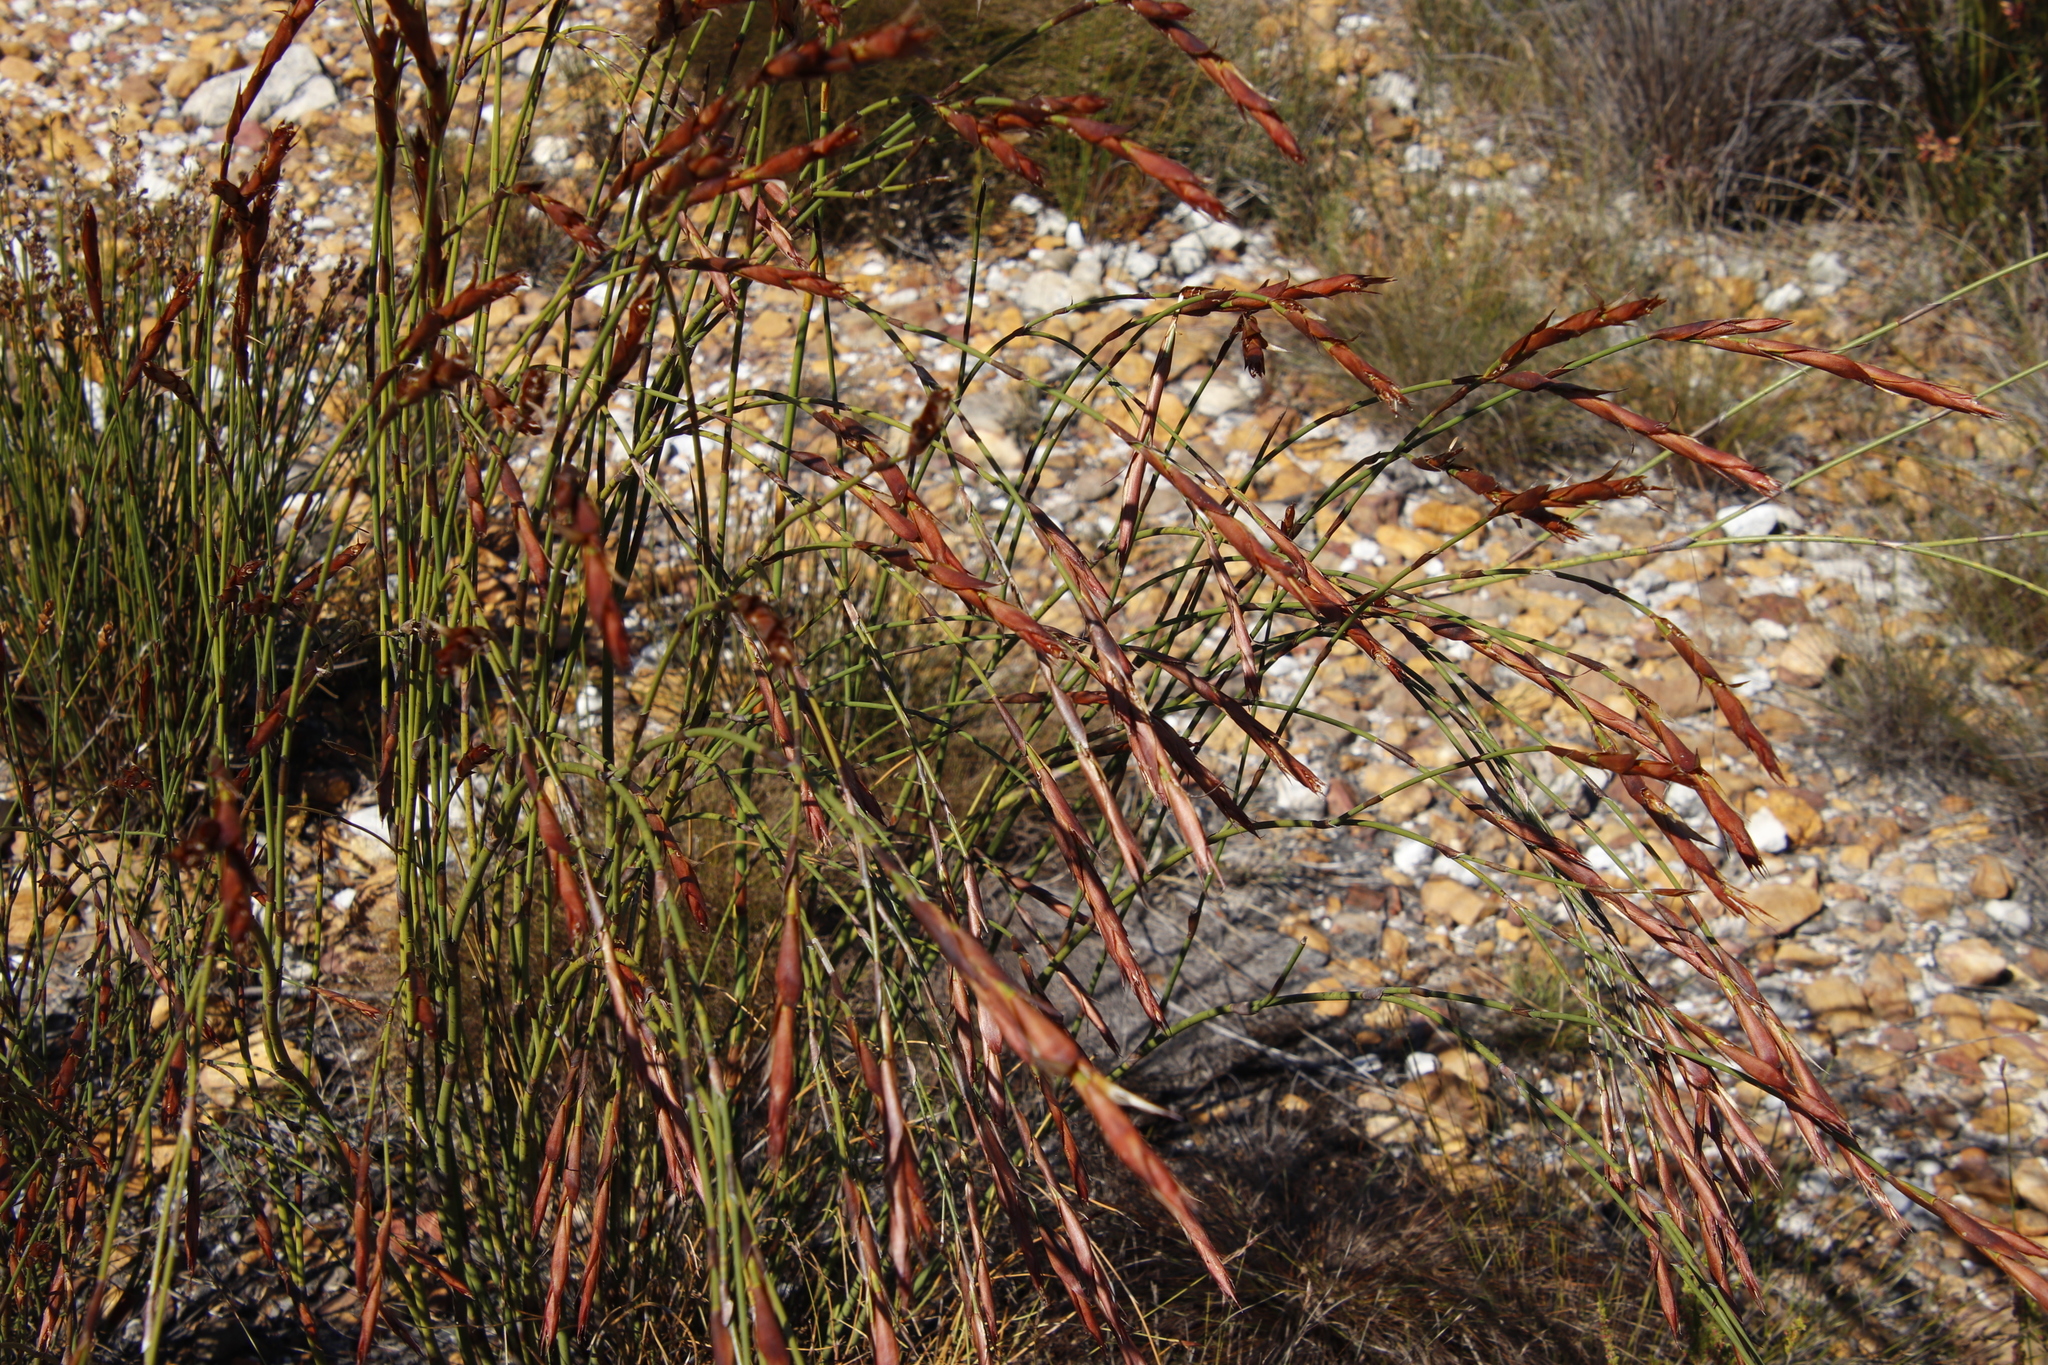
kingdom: Plantae
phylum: Tracheophyta
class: Liliopsida
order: Poales
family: Restionaceae
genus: Restio
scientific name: Restio dispar
